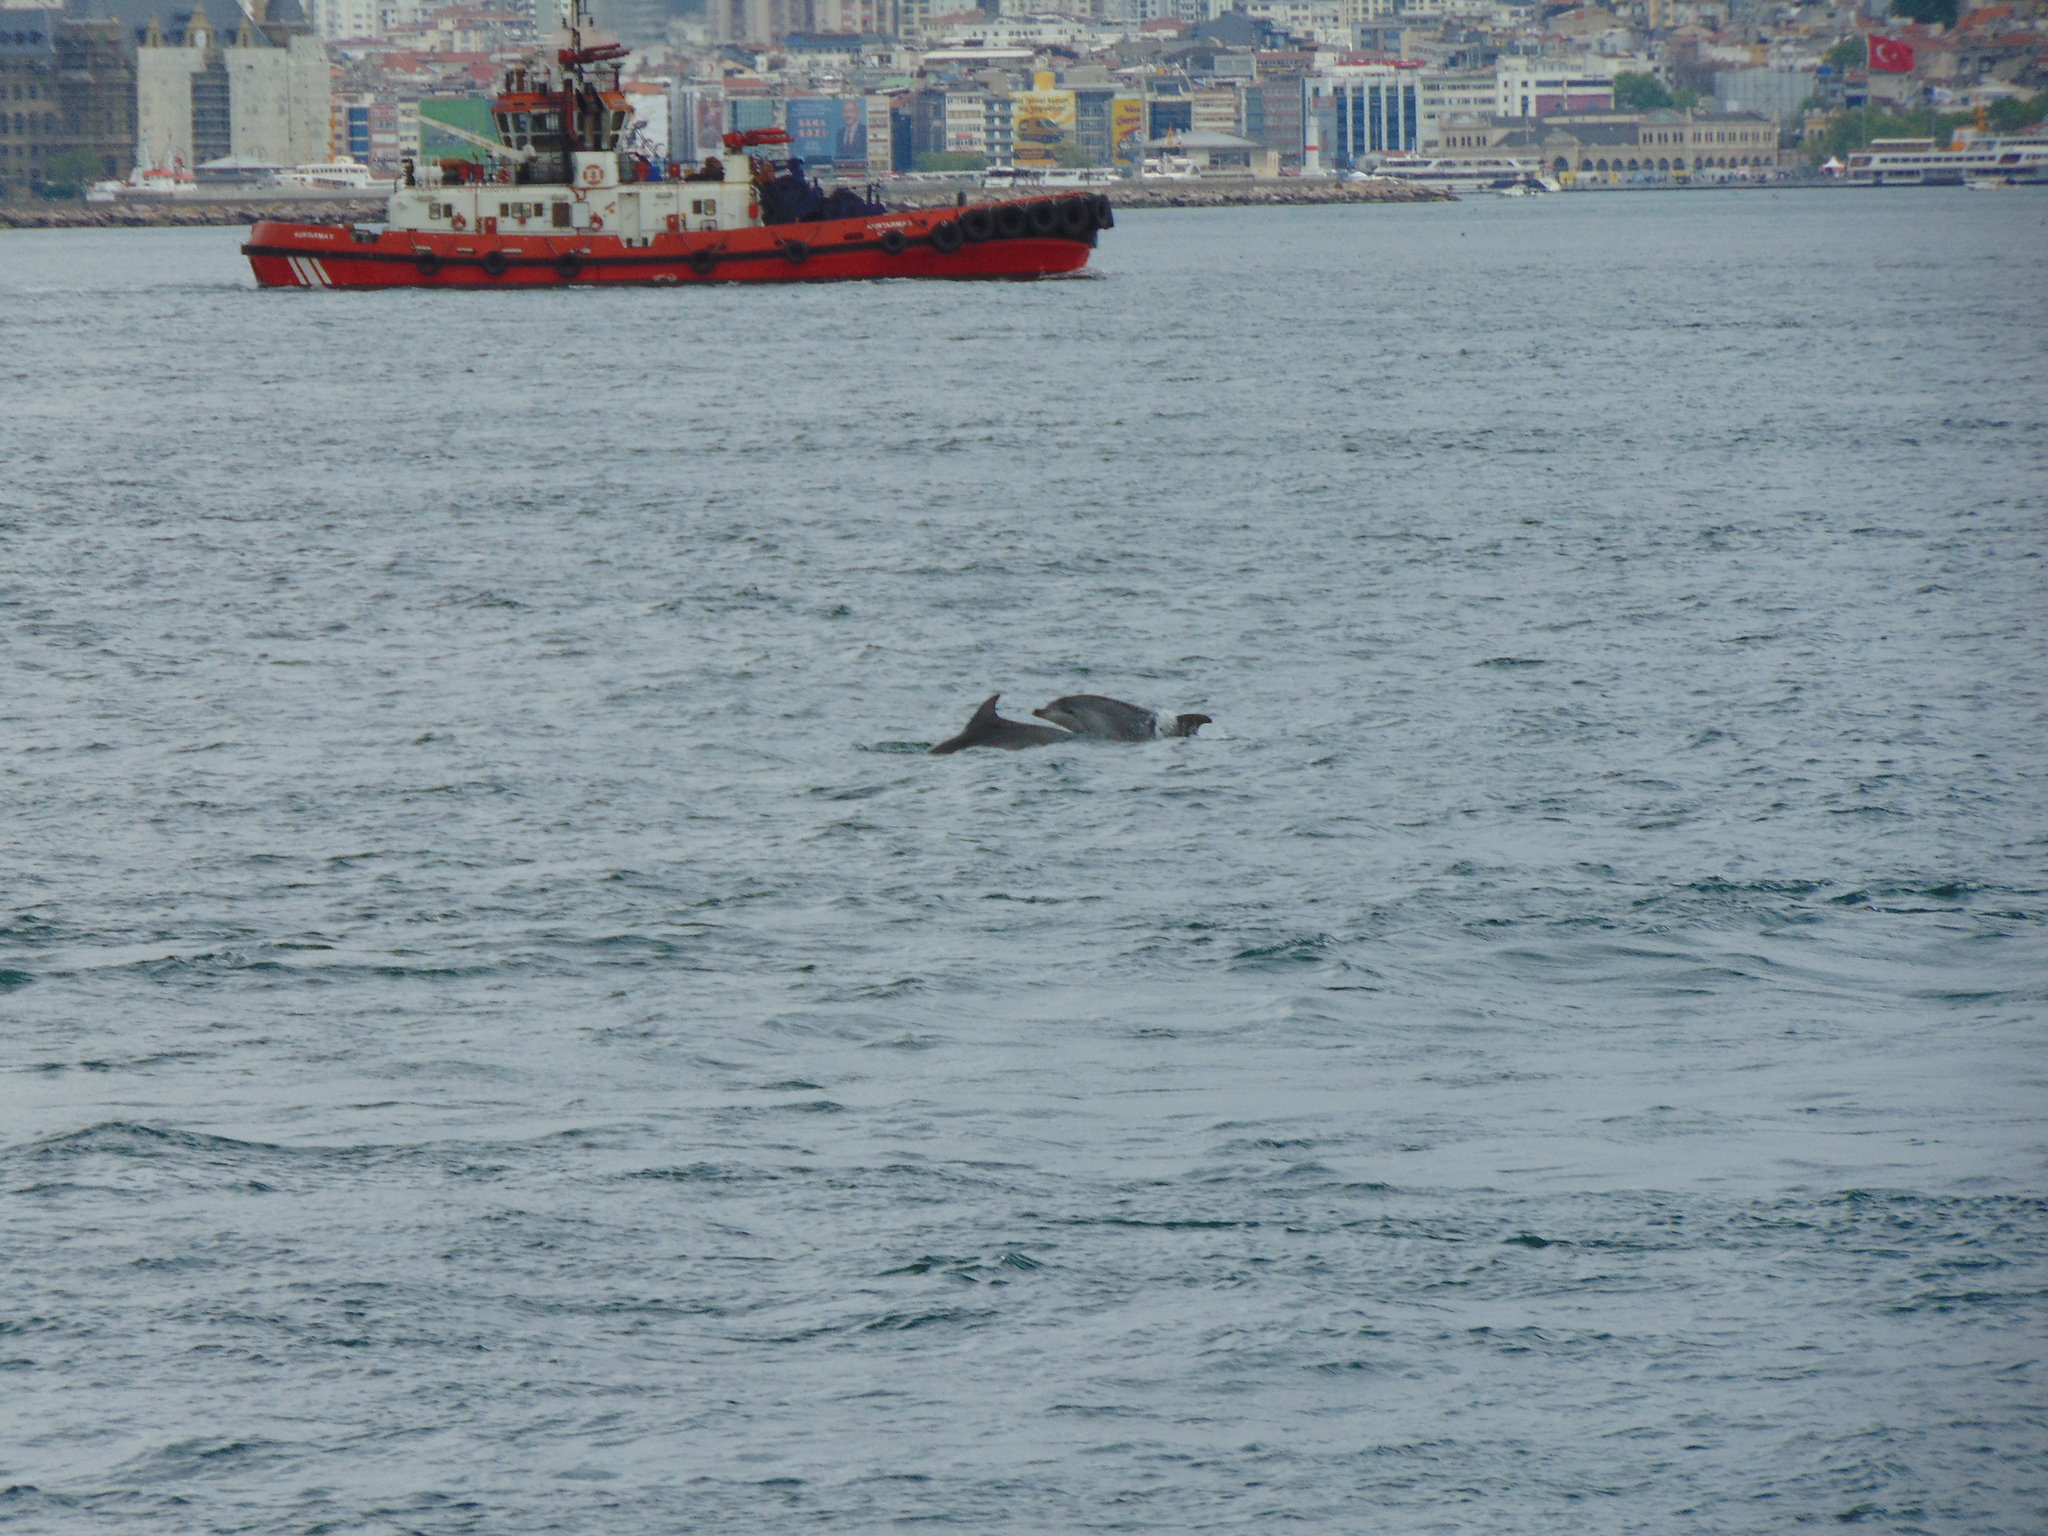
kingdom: Animalia
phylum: Chordata
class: Mammalia
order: Cetacea
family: Delphinidae
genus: Tursiops
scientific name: Tursiops truncatus
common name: Bottlenose dolphin
